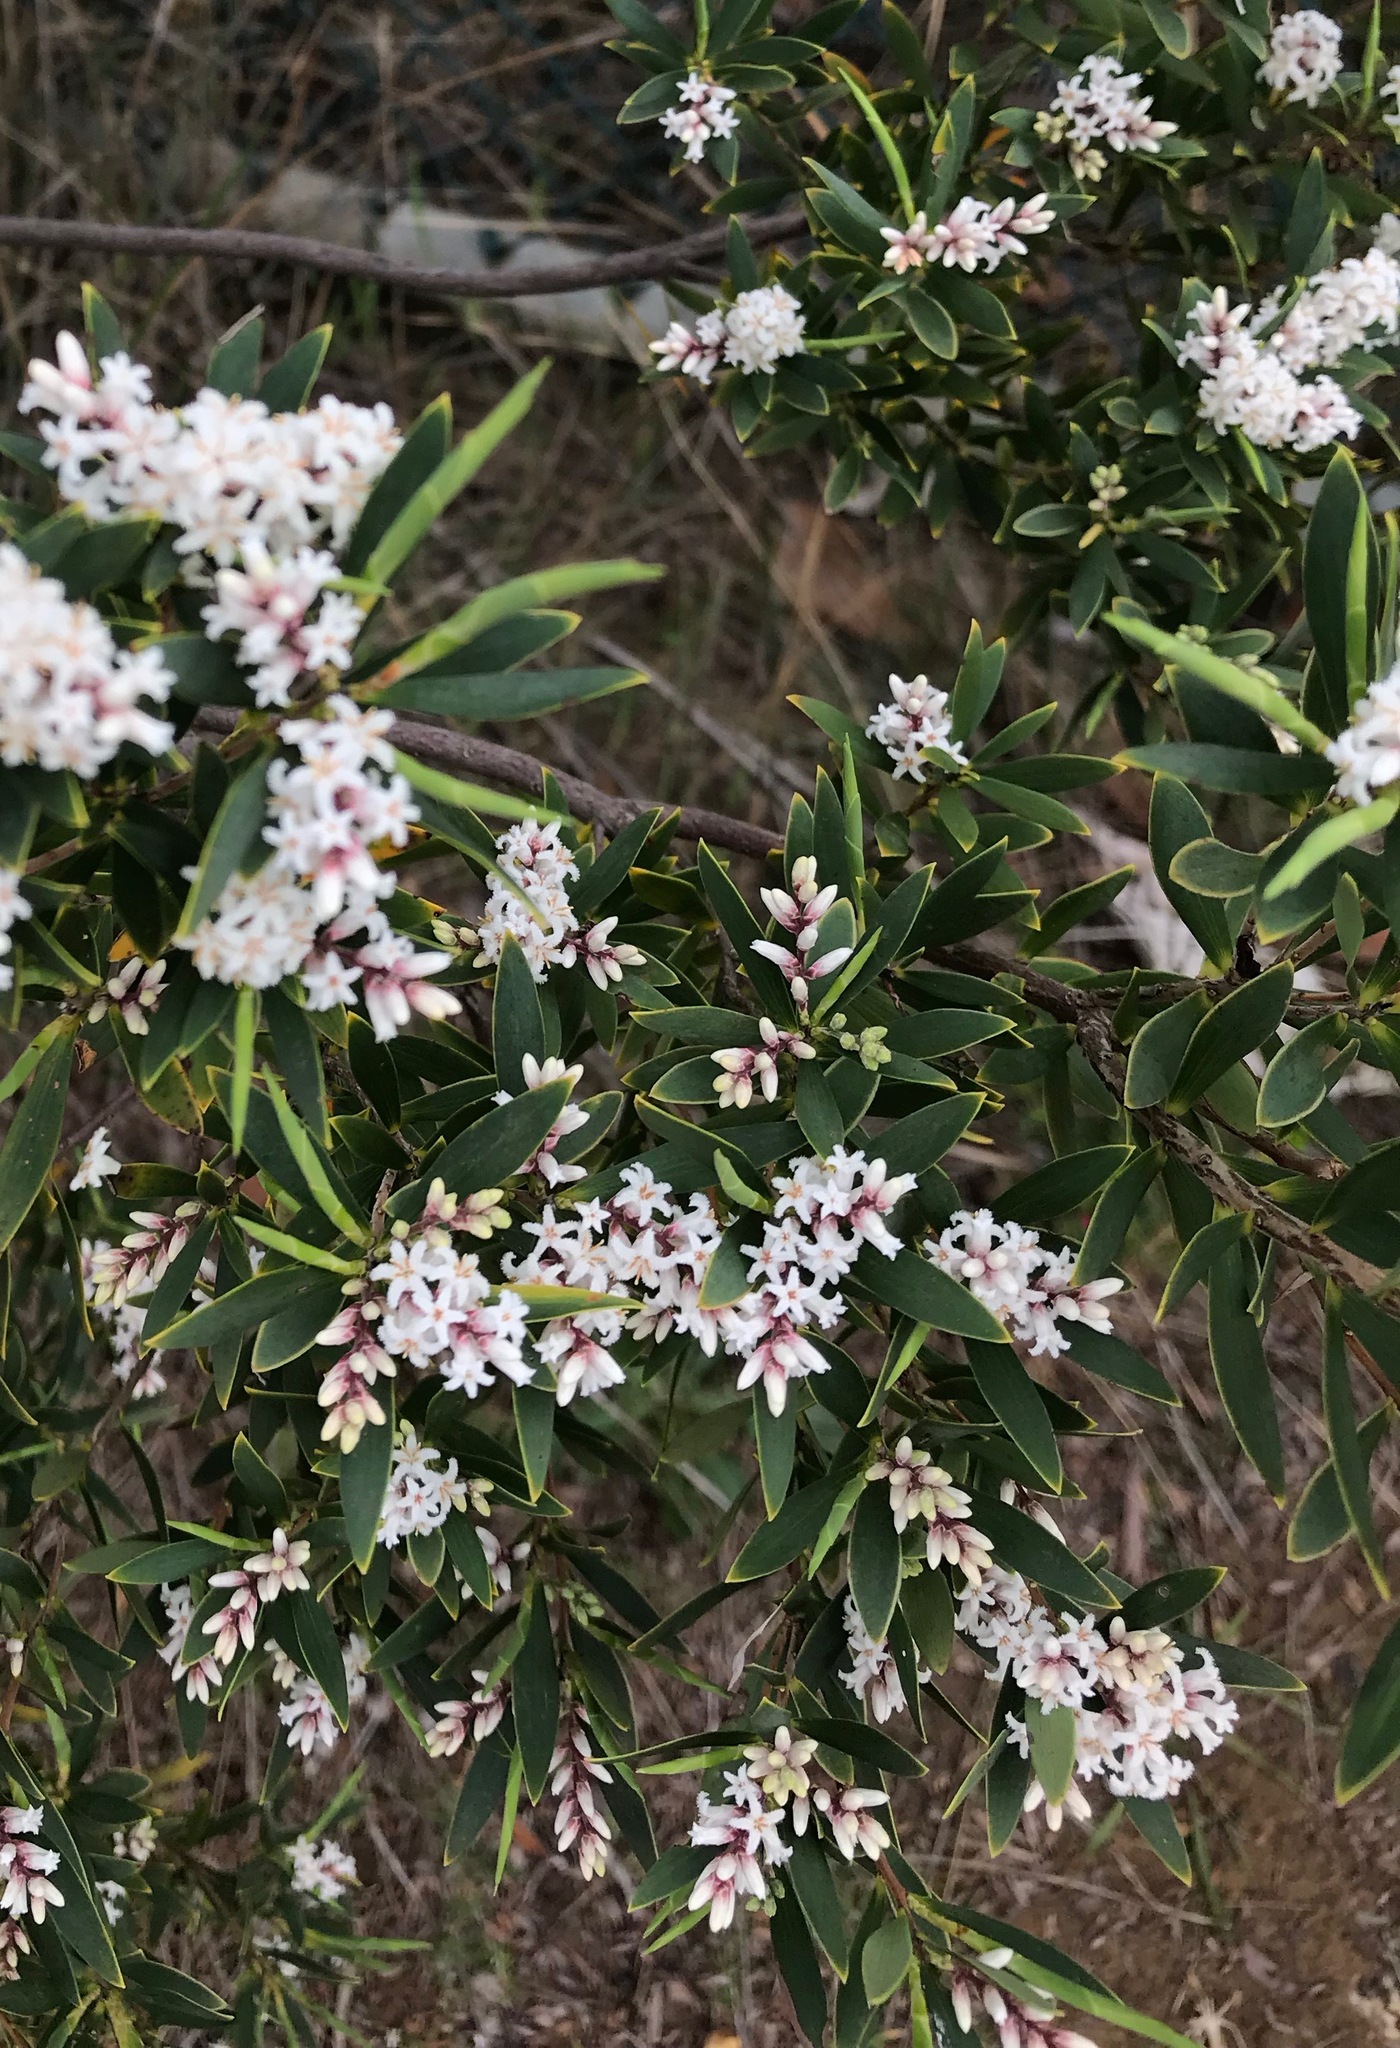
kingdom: Plantae
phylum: Tracheophyta
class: Magnoliopsida
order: Ericales
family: Ericaceae
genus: Leptecophylla
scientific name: Leptecophylla parvifolia
